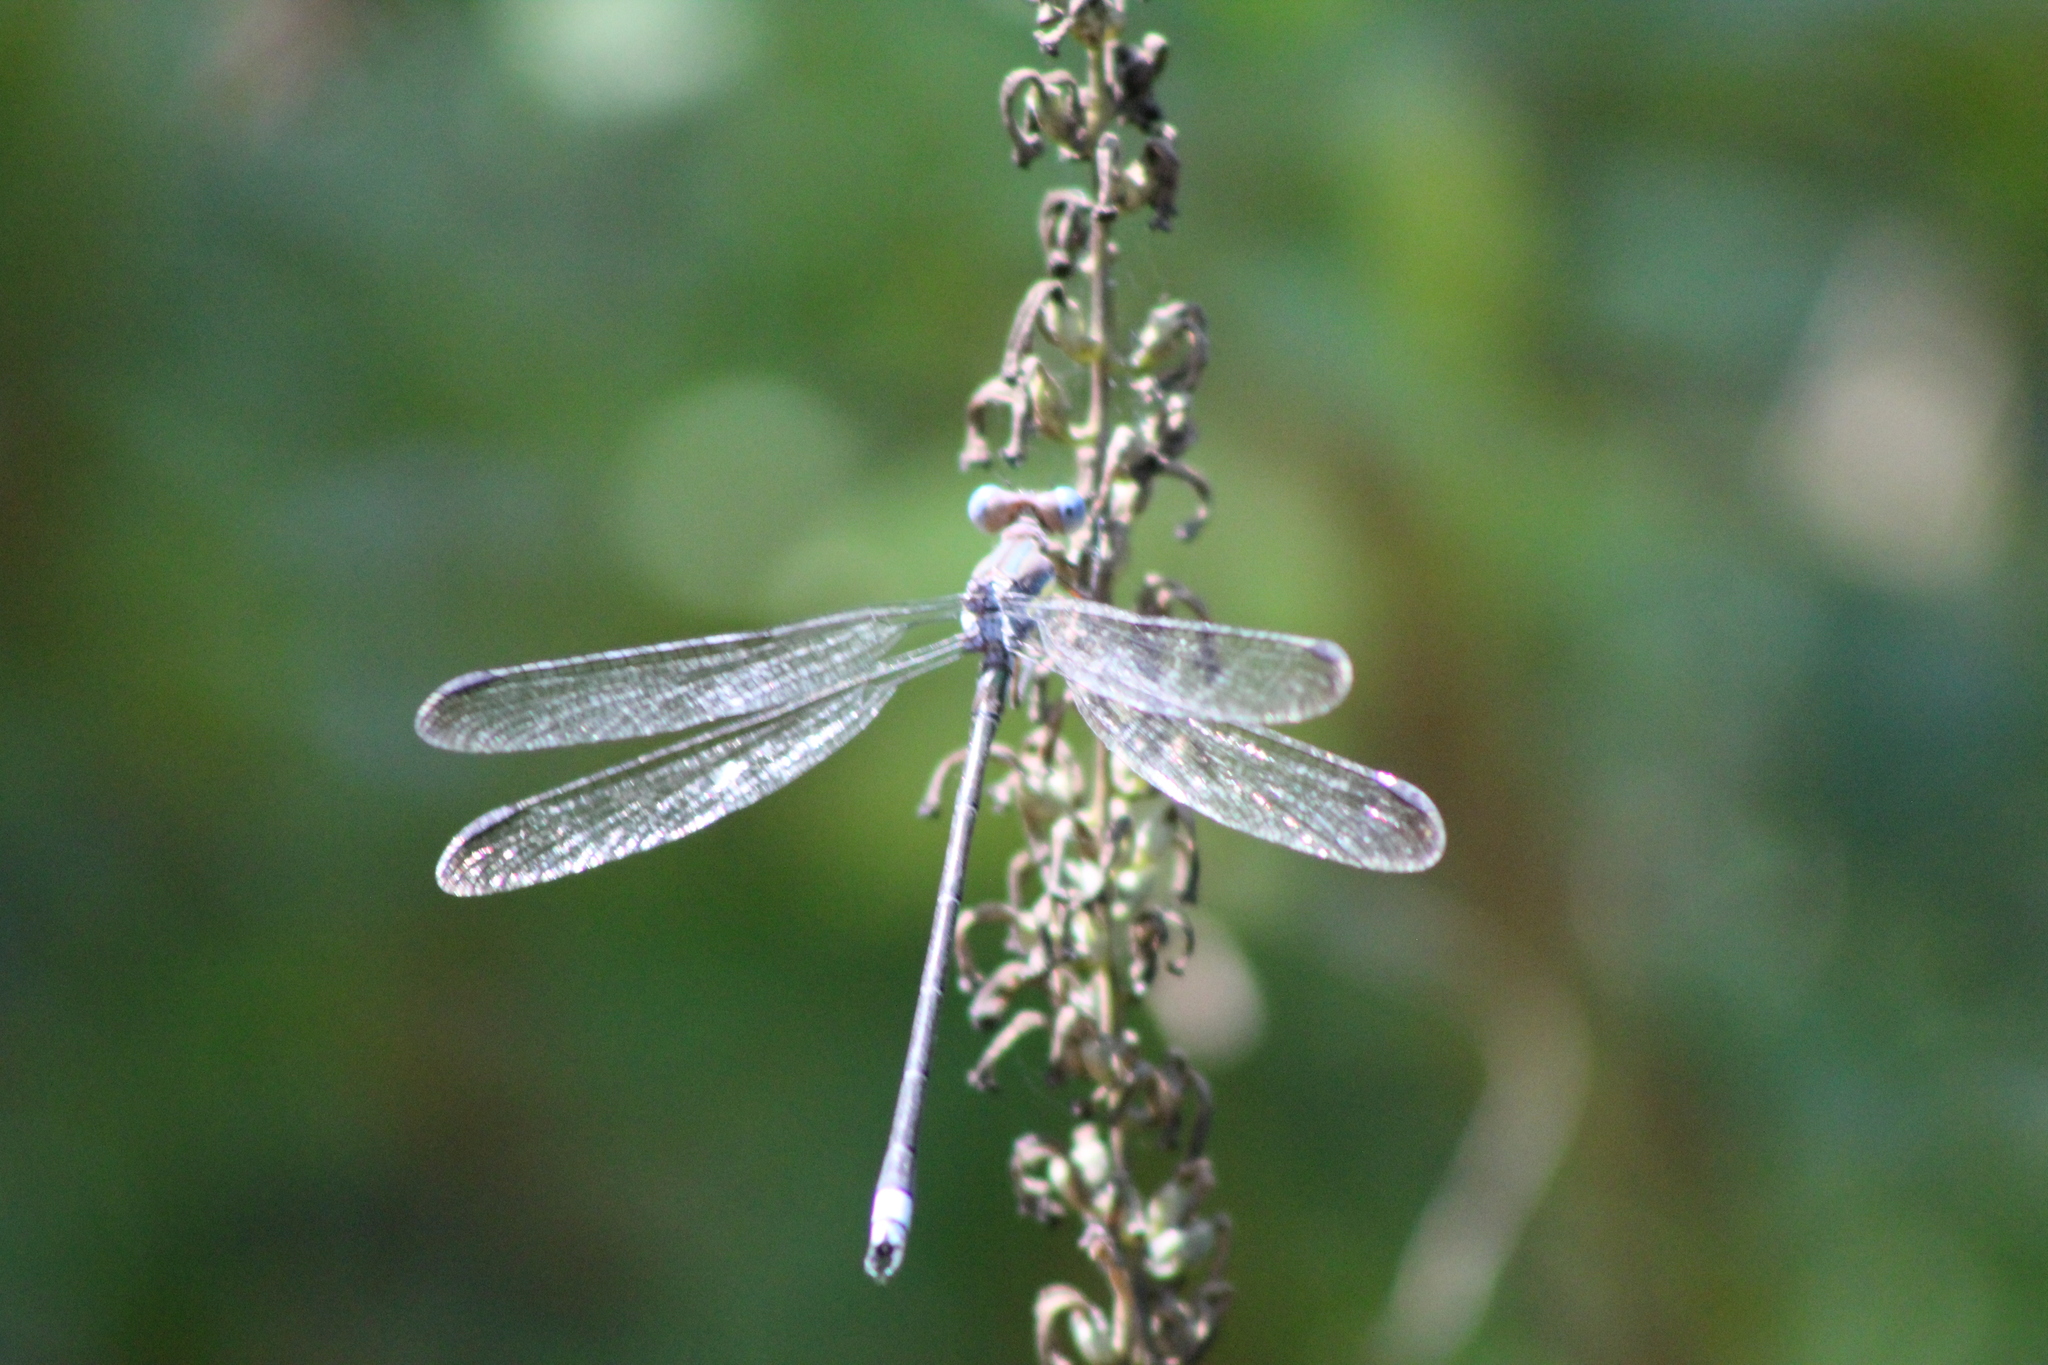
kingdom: Animalia
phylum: Arthropoda
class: Insecta
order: Odonata
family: Lestidae
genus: Archilestes
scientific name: Archilestes grandis
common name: Great spreadwing
